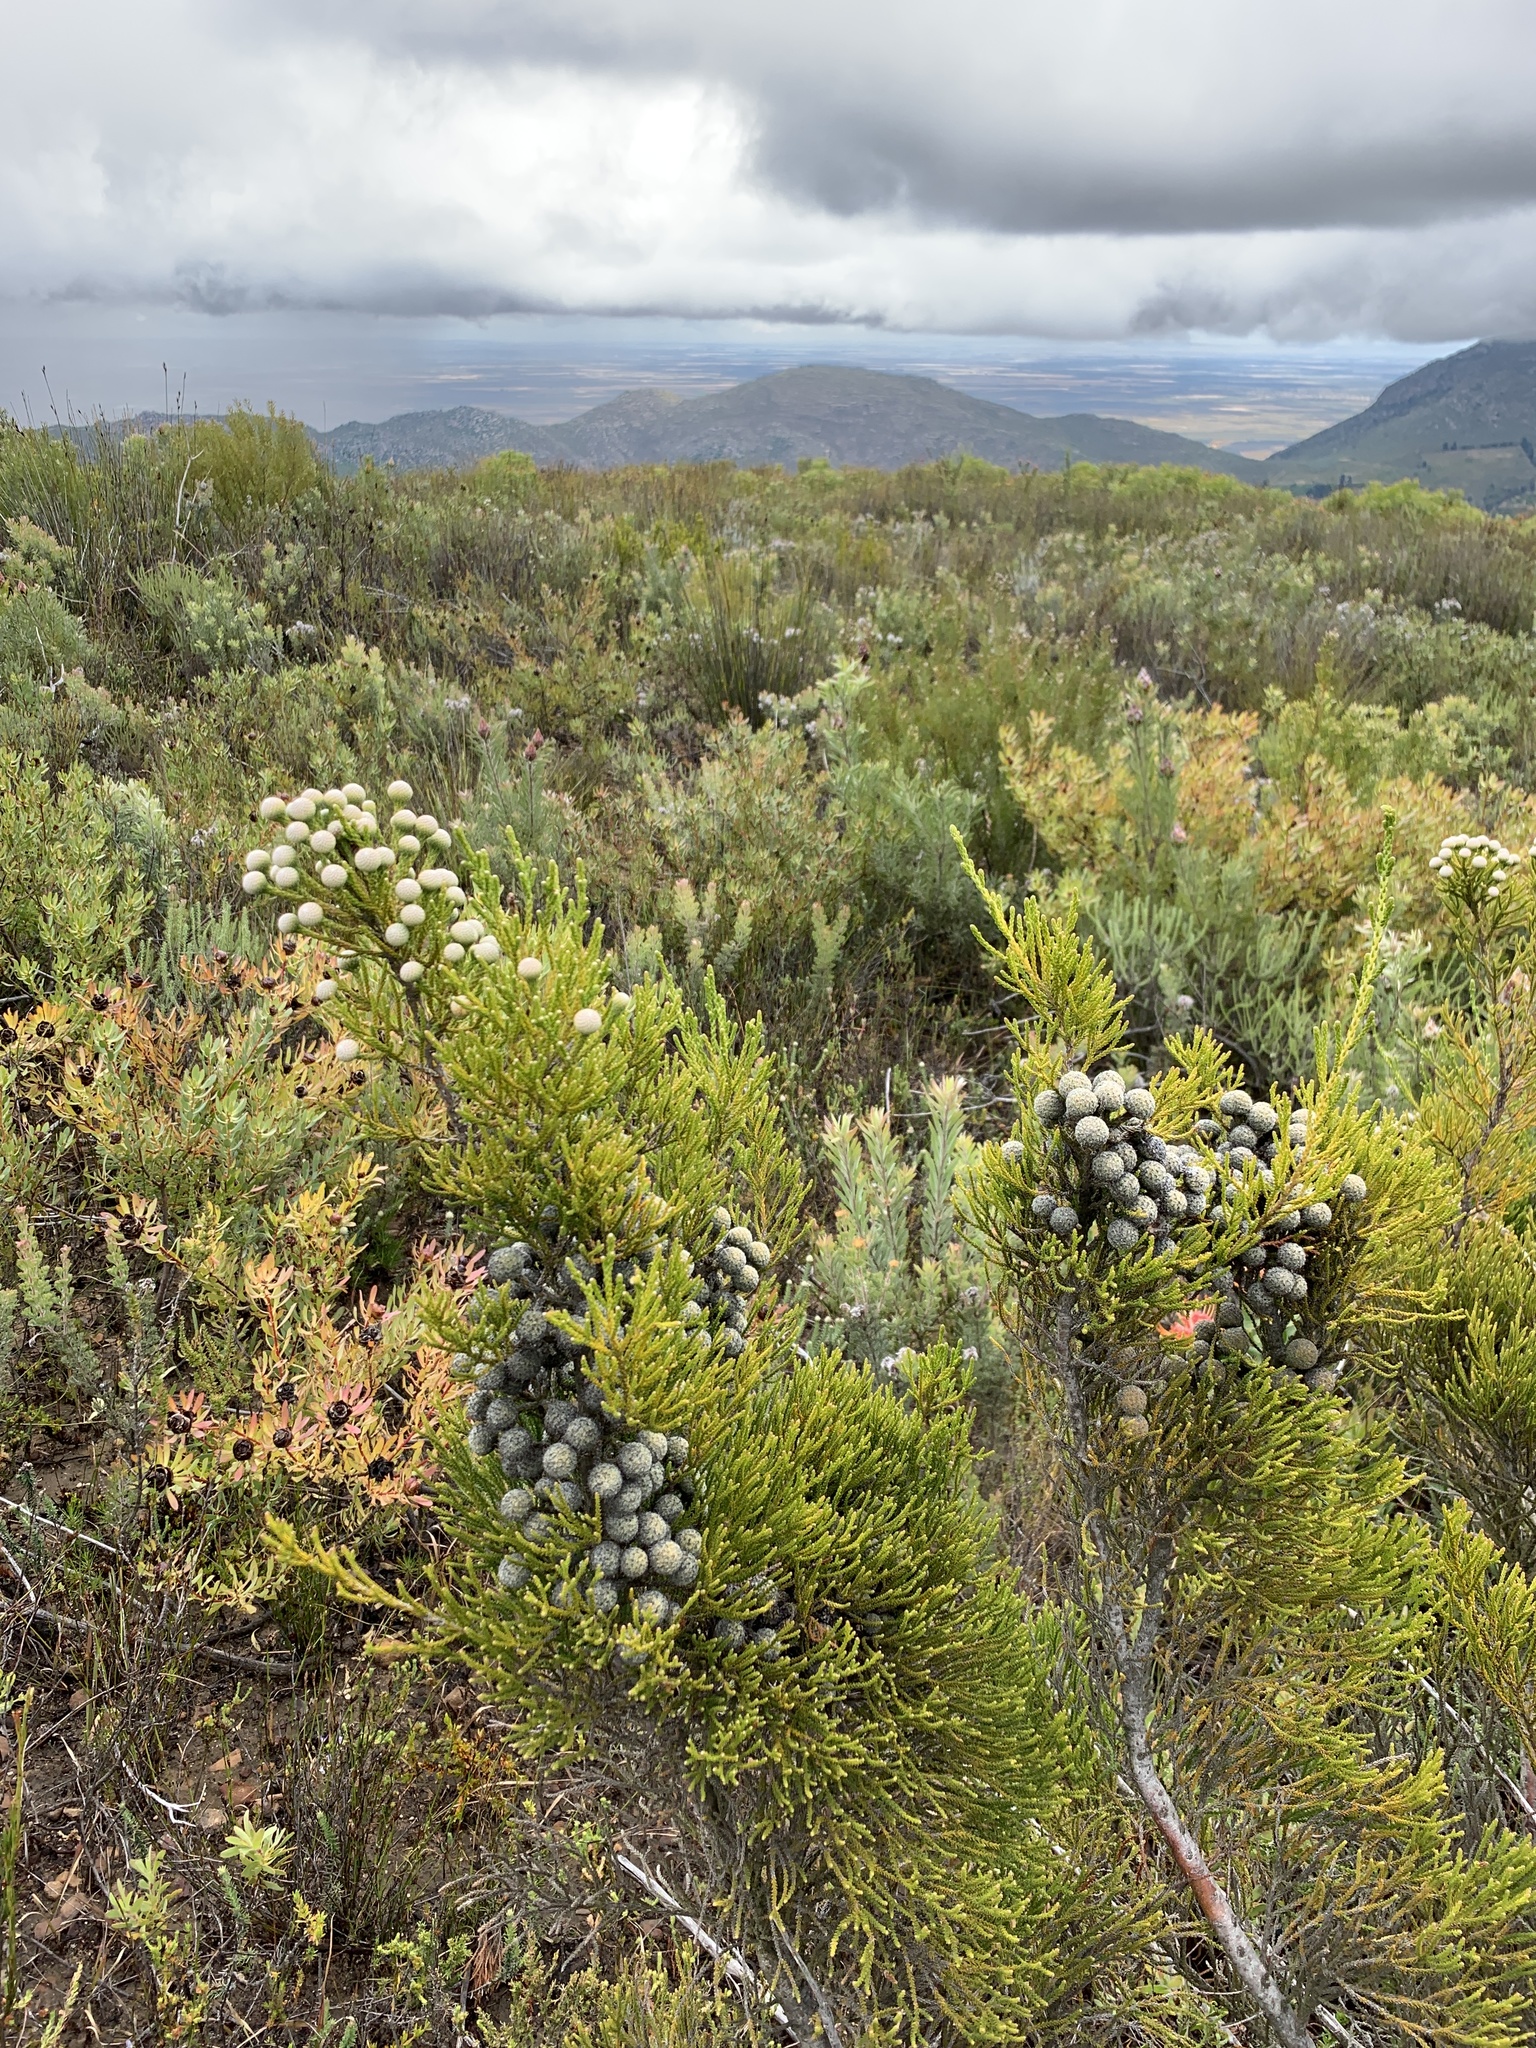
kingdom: Plantae
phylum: Tracheophyta
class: Magnoliopsida
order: Bruniales
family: Bruniaceae
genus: Brunia
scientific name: Brunia noduliflora
